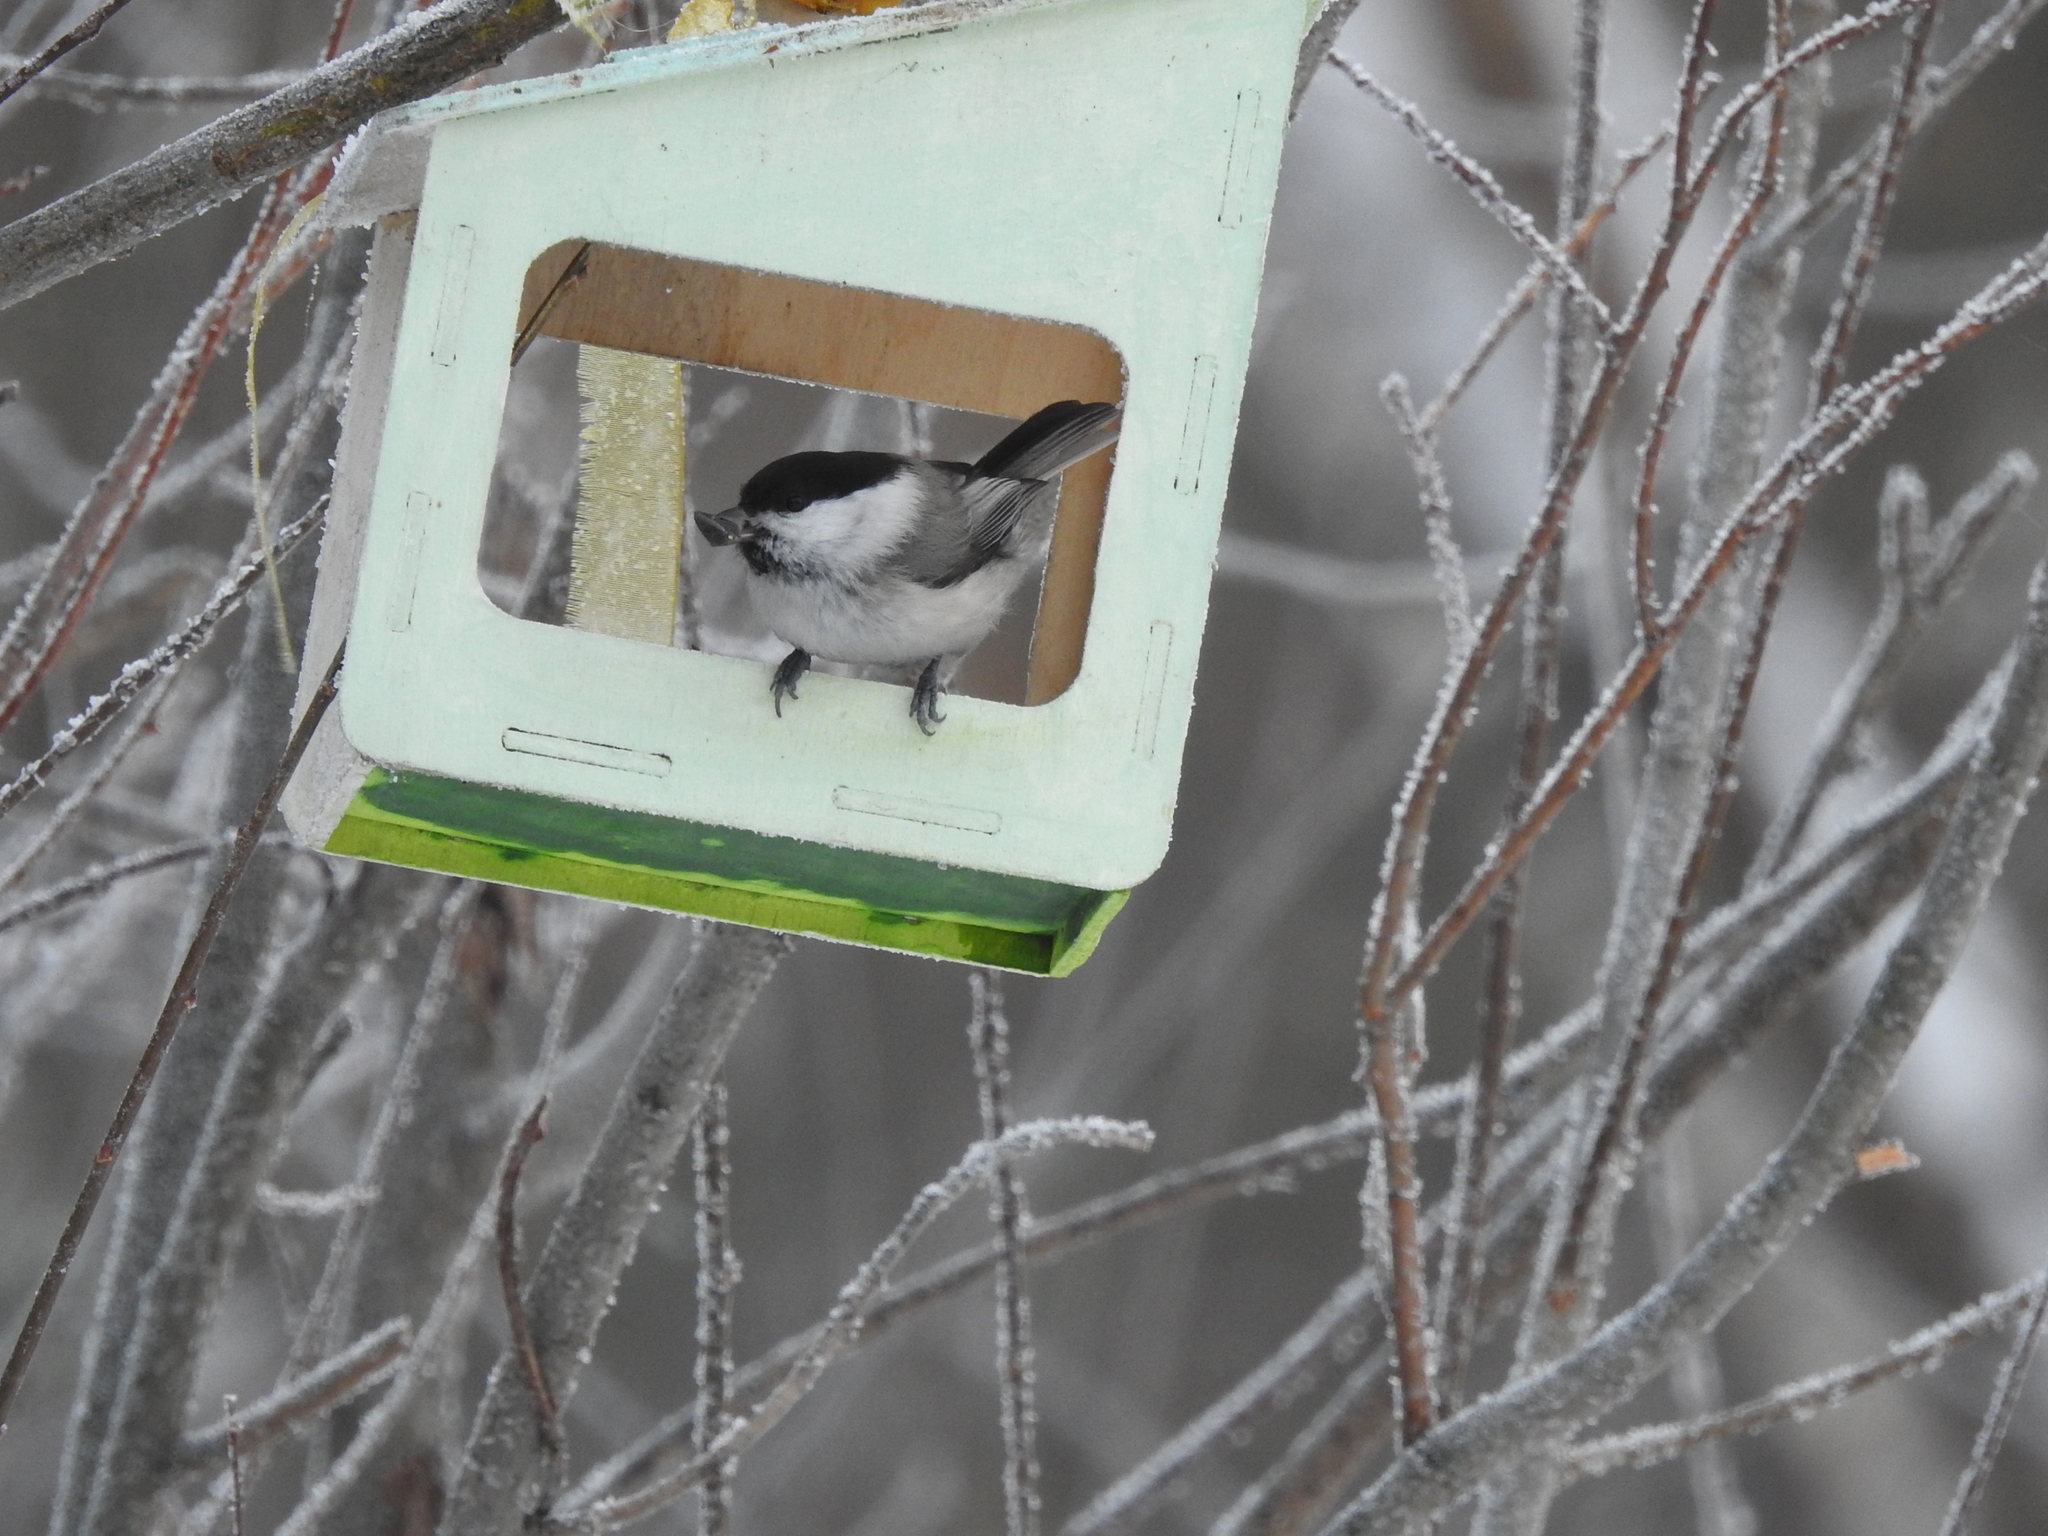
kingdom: Animalia
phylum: Chordata
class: Aves
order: Passeriformes
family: Paridae
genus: Poecile
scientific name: Poecile montanus
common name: Willow tit
